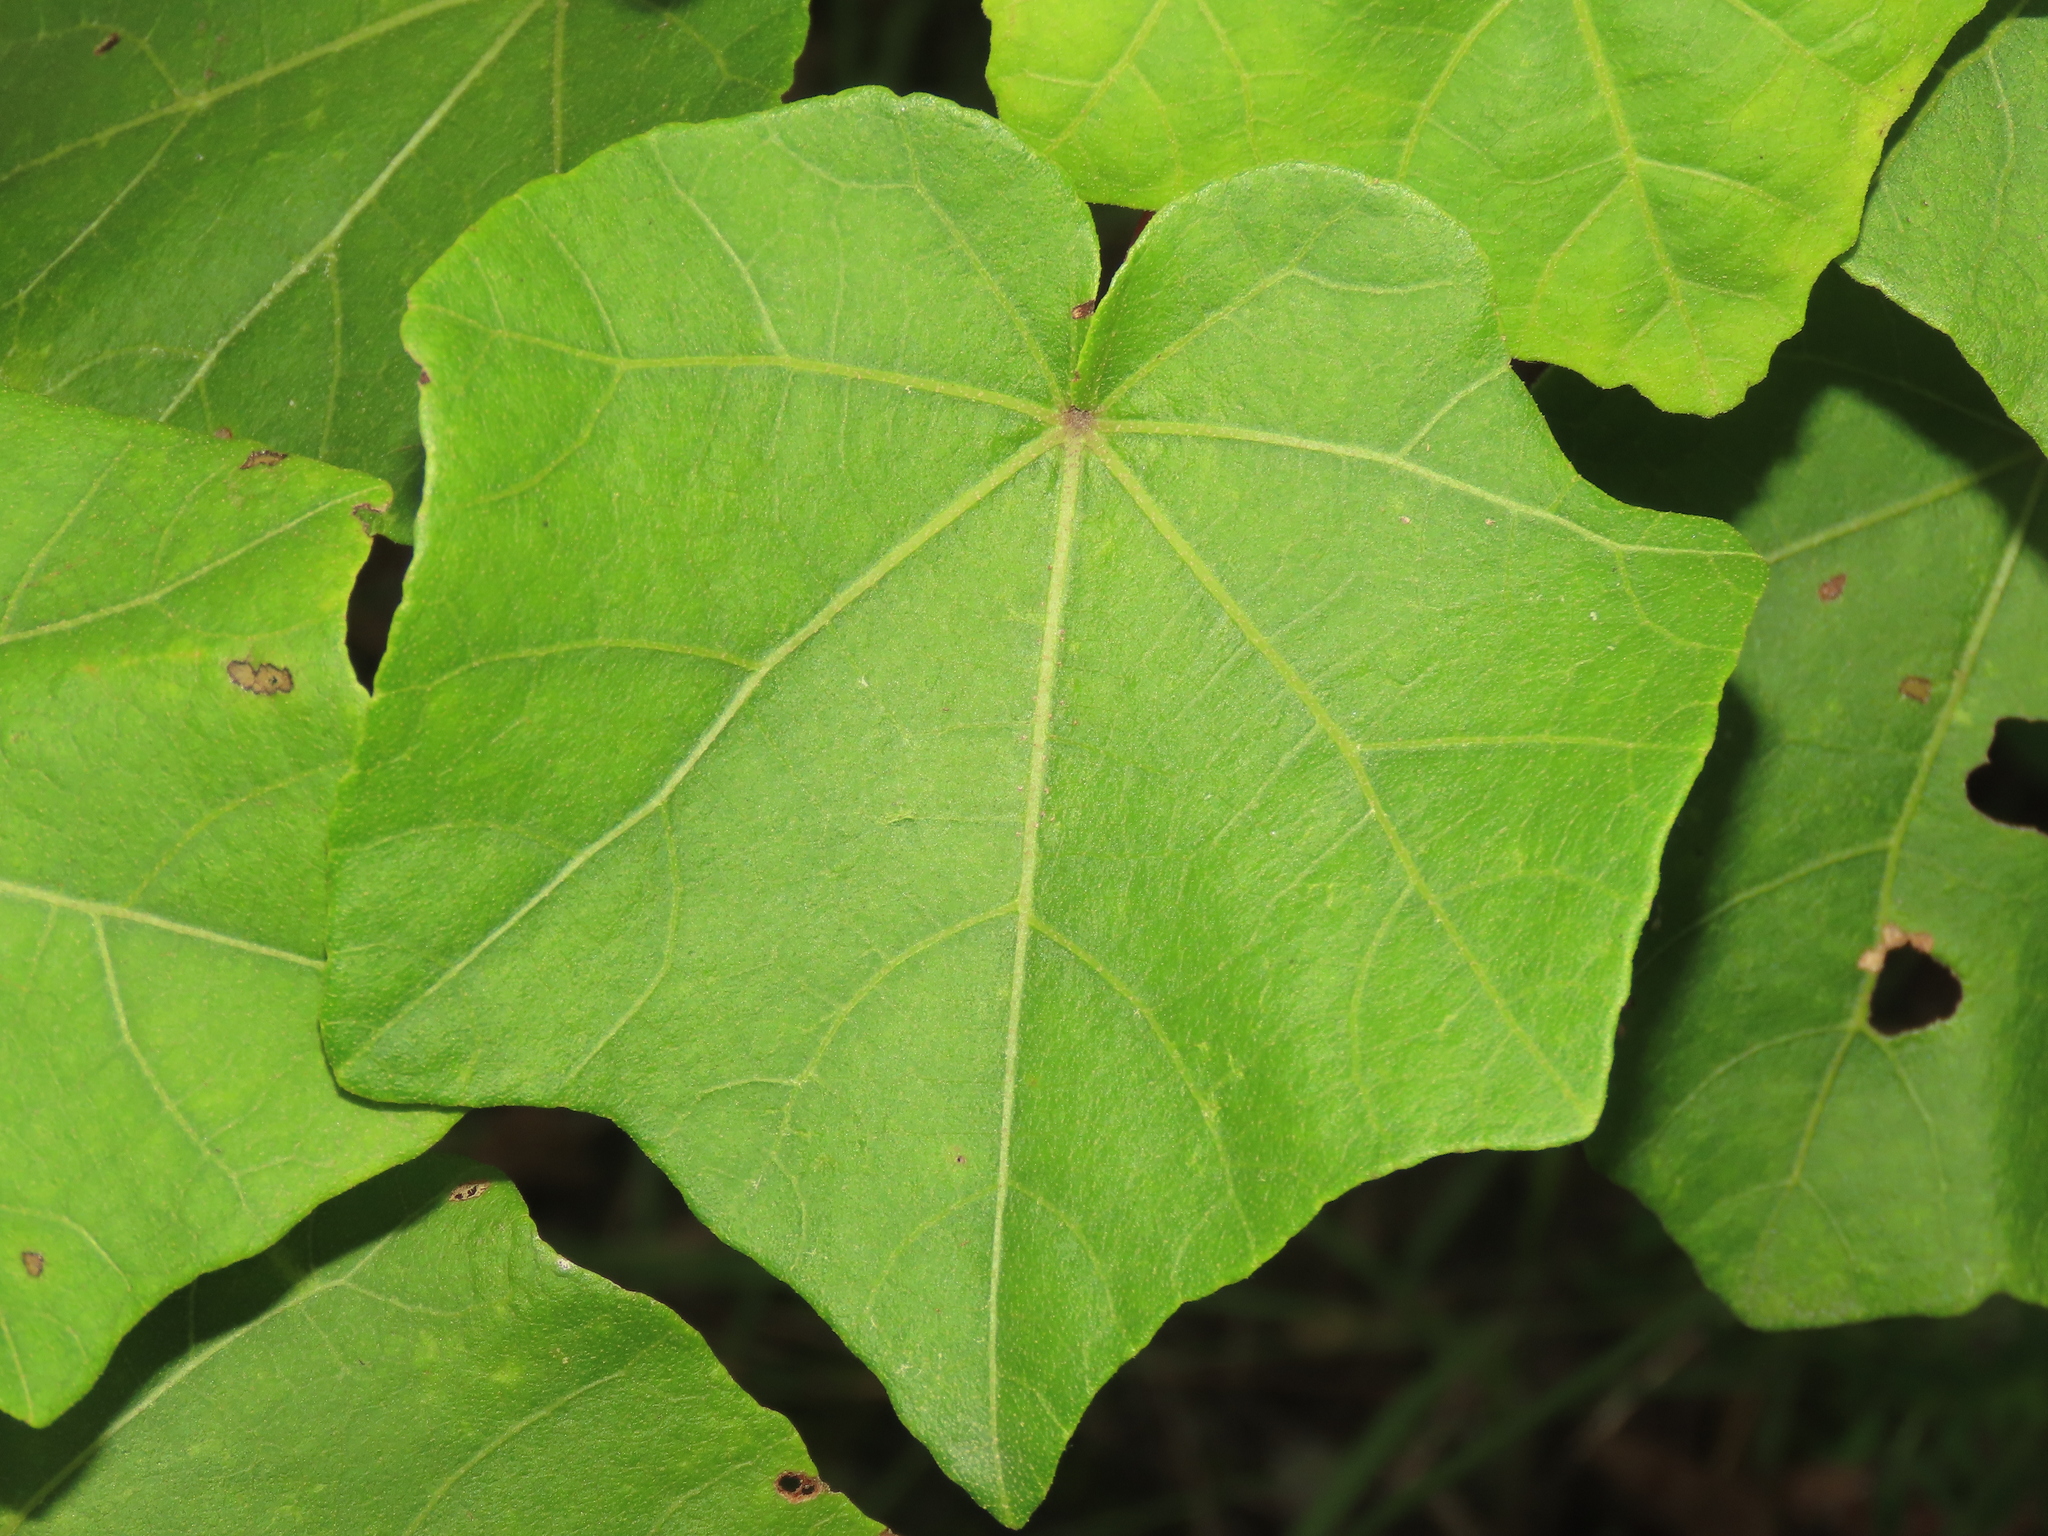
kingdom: Plantae
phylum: Tracheophyta
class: Magnoliopsida
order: Malvales
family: Malvaceae
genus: Hibiscus
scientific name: Hibiscus makinoi
